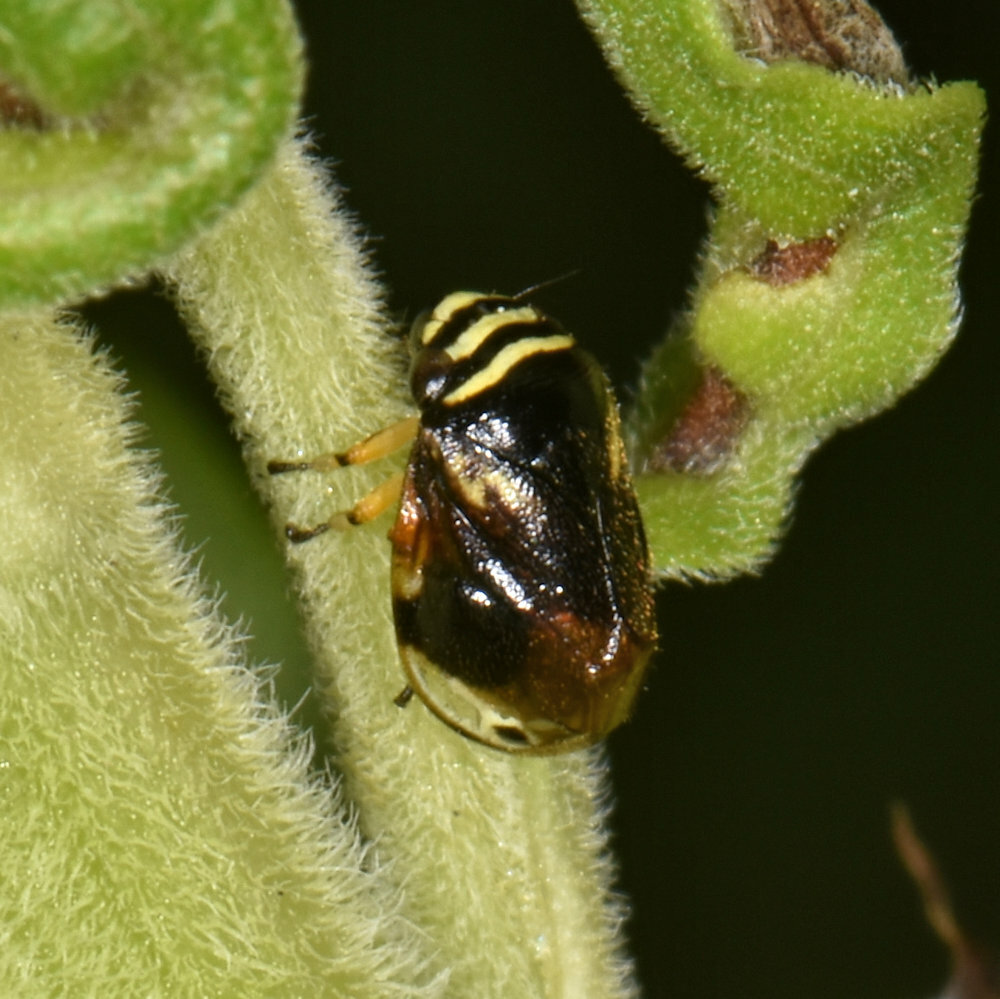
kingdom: Animalia
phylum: Arthropoda
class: Insecta
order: Hemiptera
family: Clastopteridae
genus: Clastoptera
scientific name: Clastoptera proteus
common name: Dogwood spittlebug
